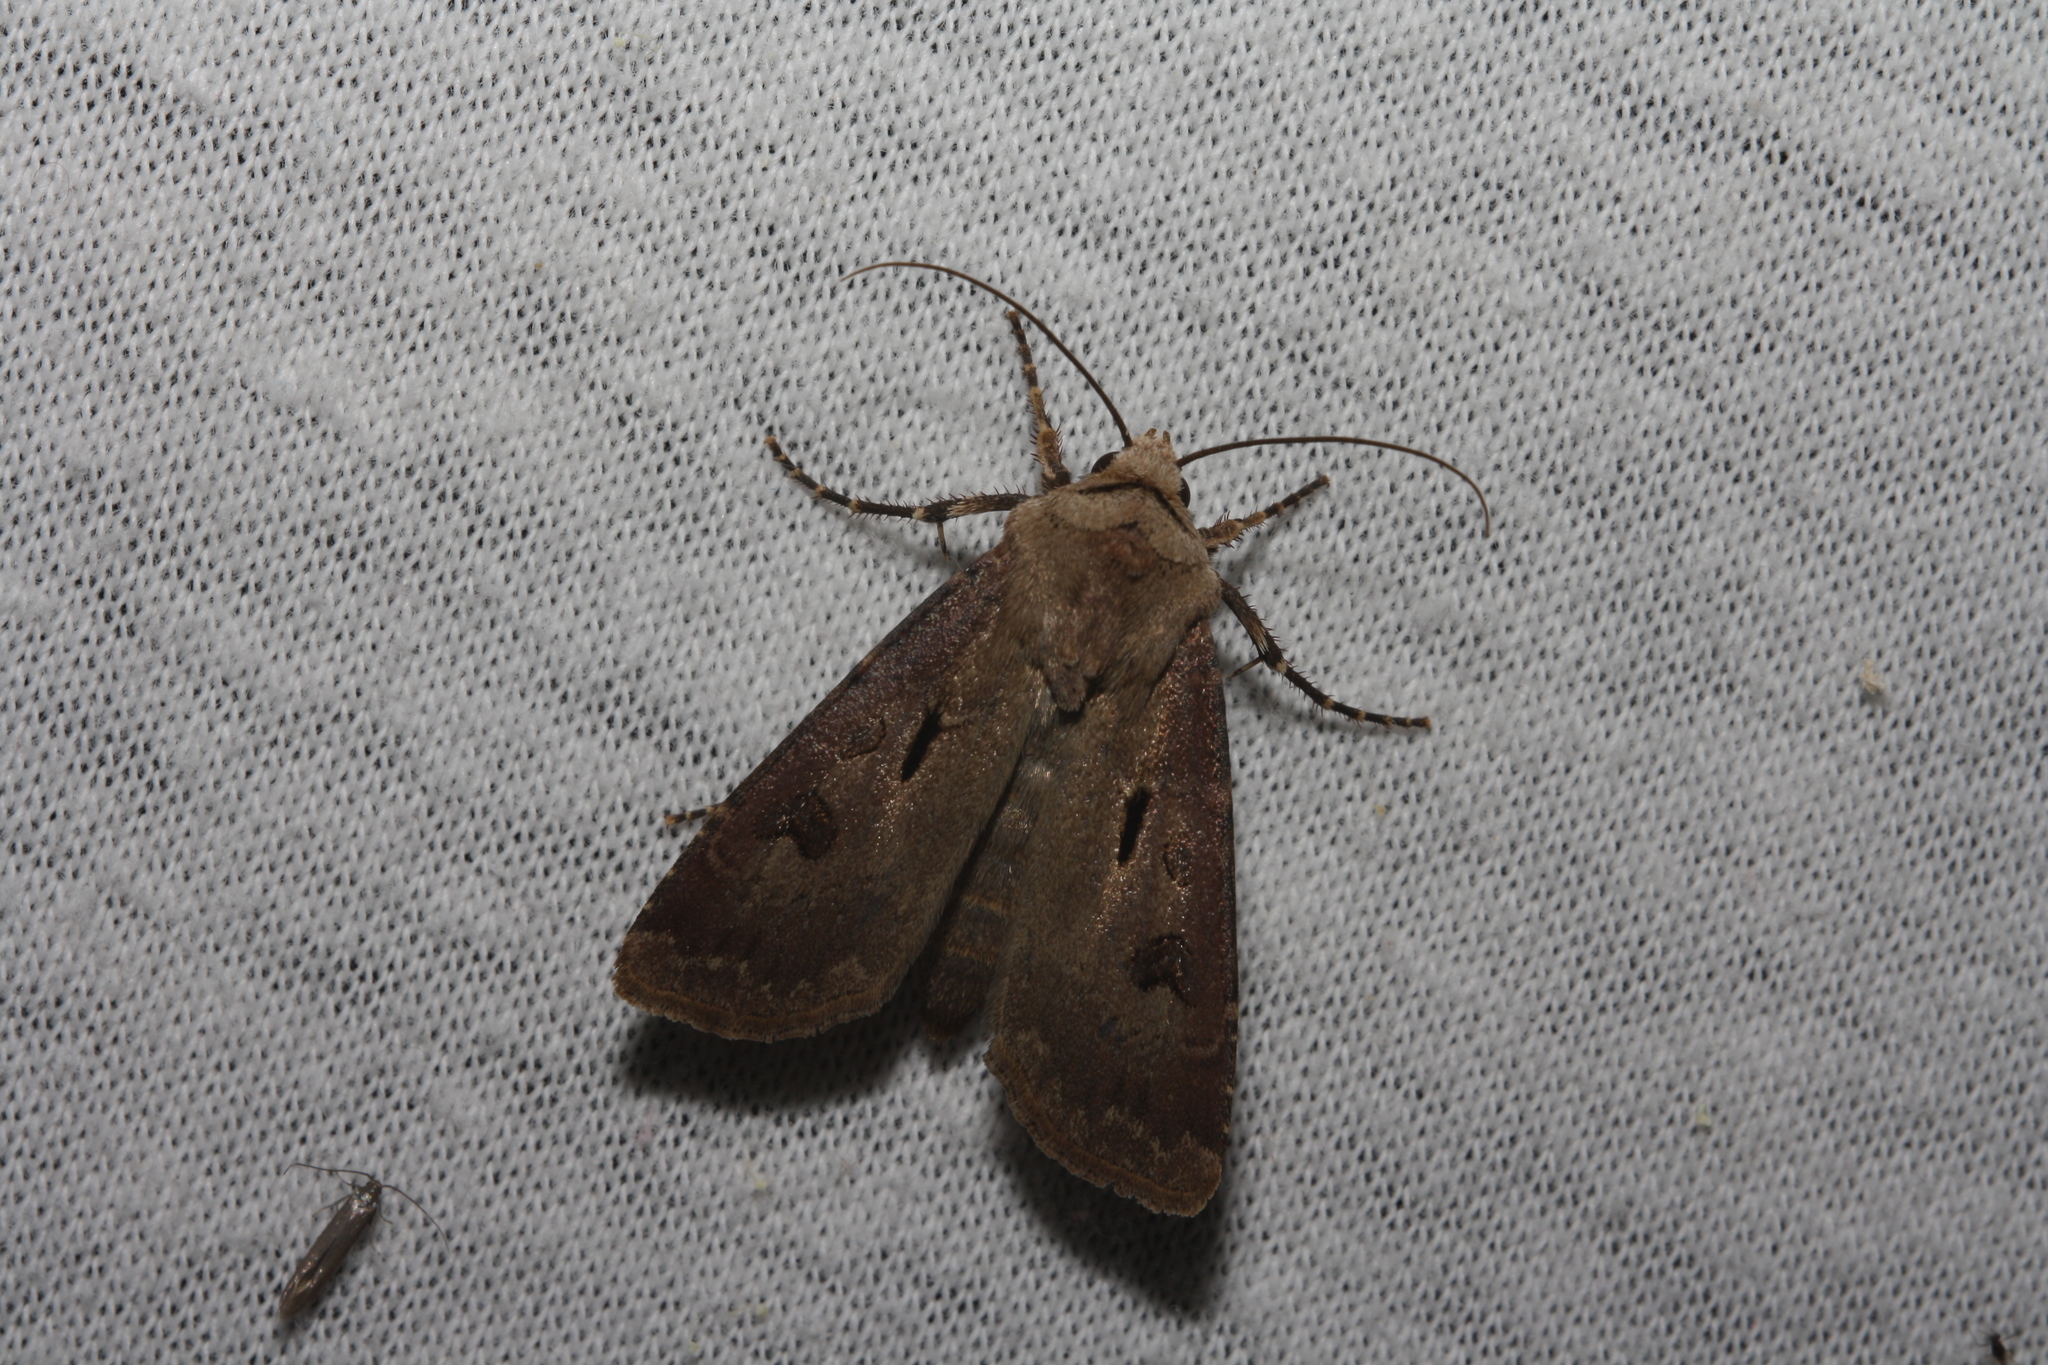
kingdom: Animalia
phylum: Arthropoda
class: Insecta
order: Lepidoptera
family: Noctuidae
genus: Agrotis
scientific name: Agrotis exclamationis
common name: Heart and dart
